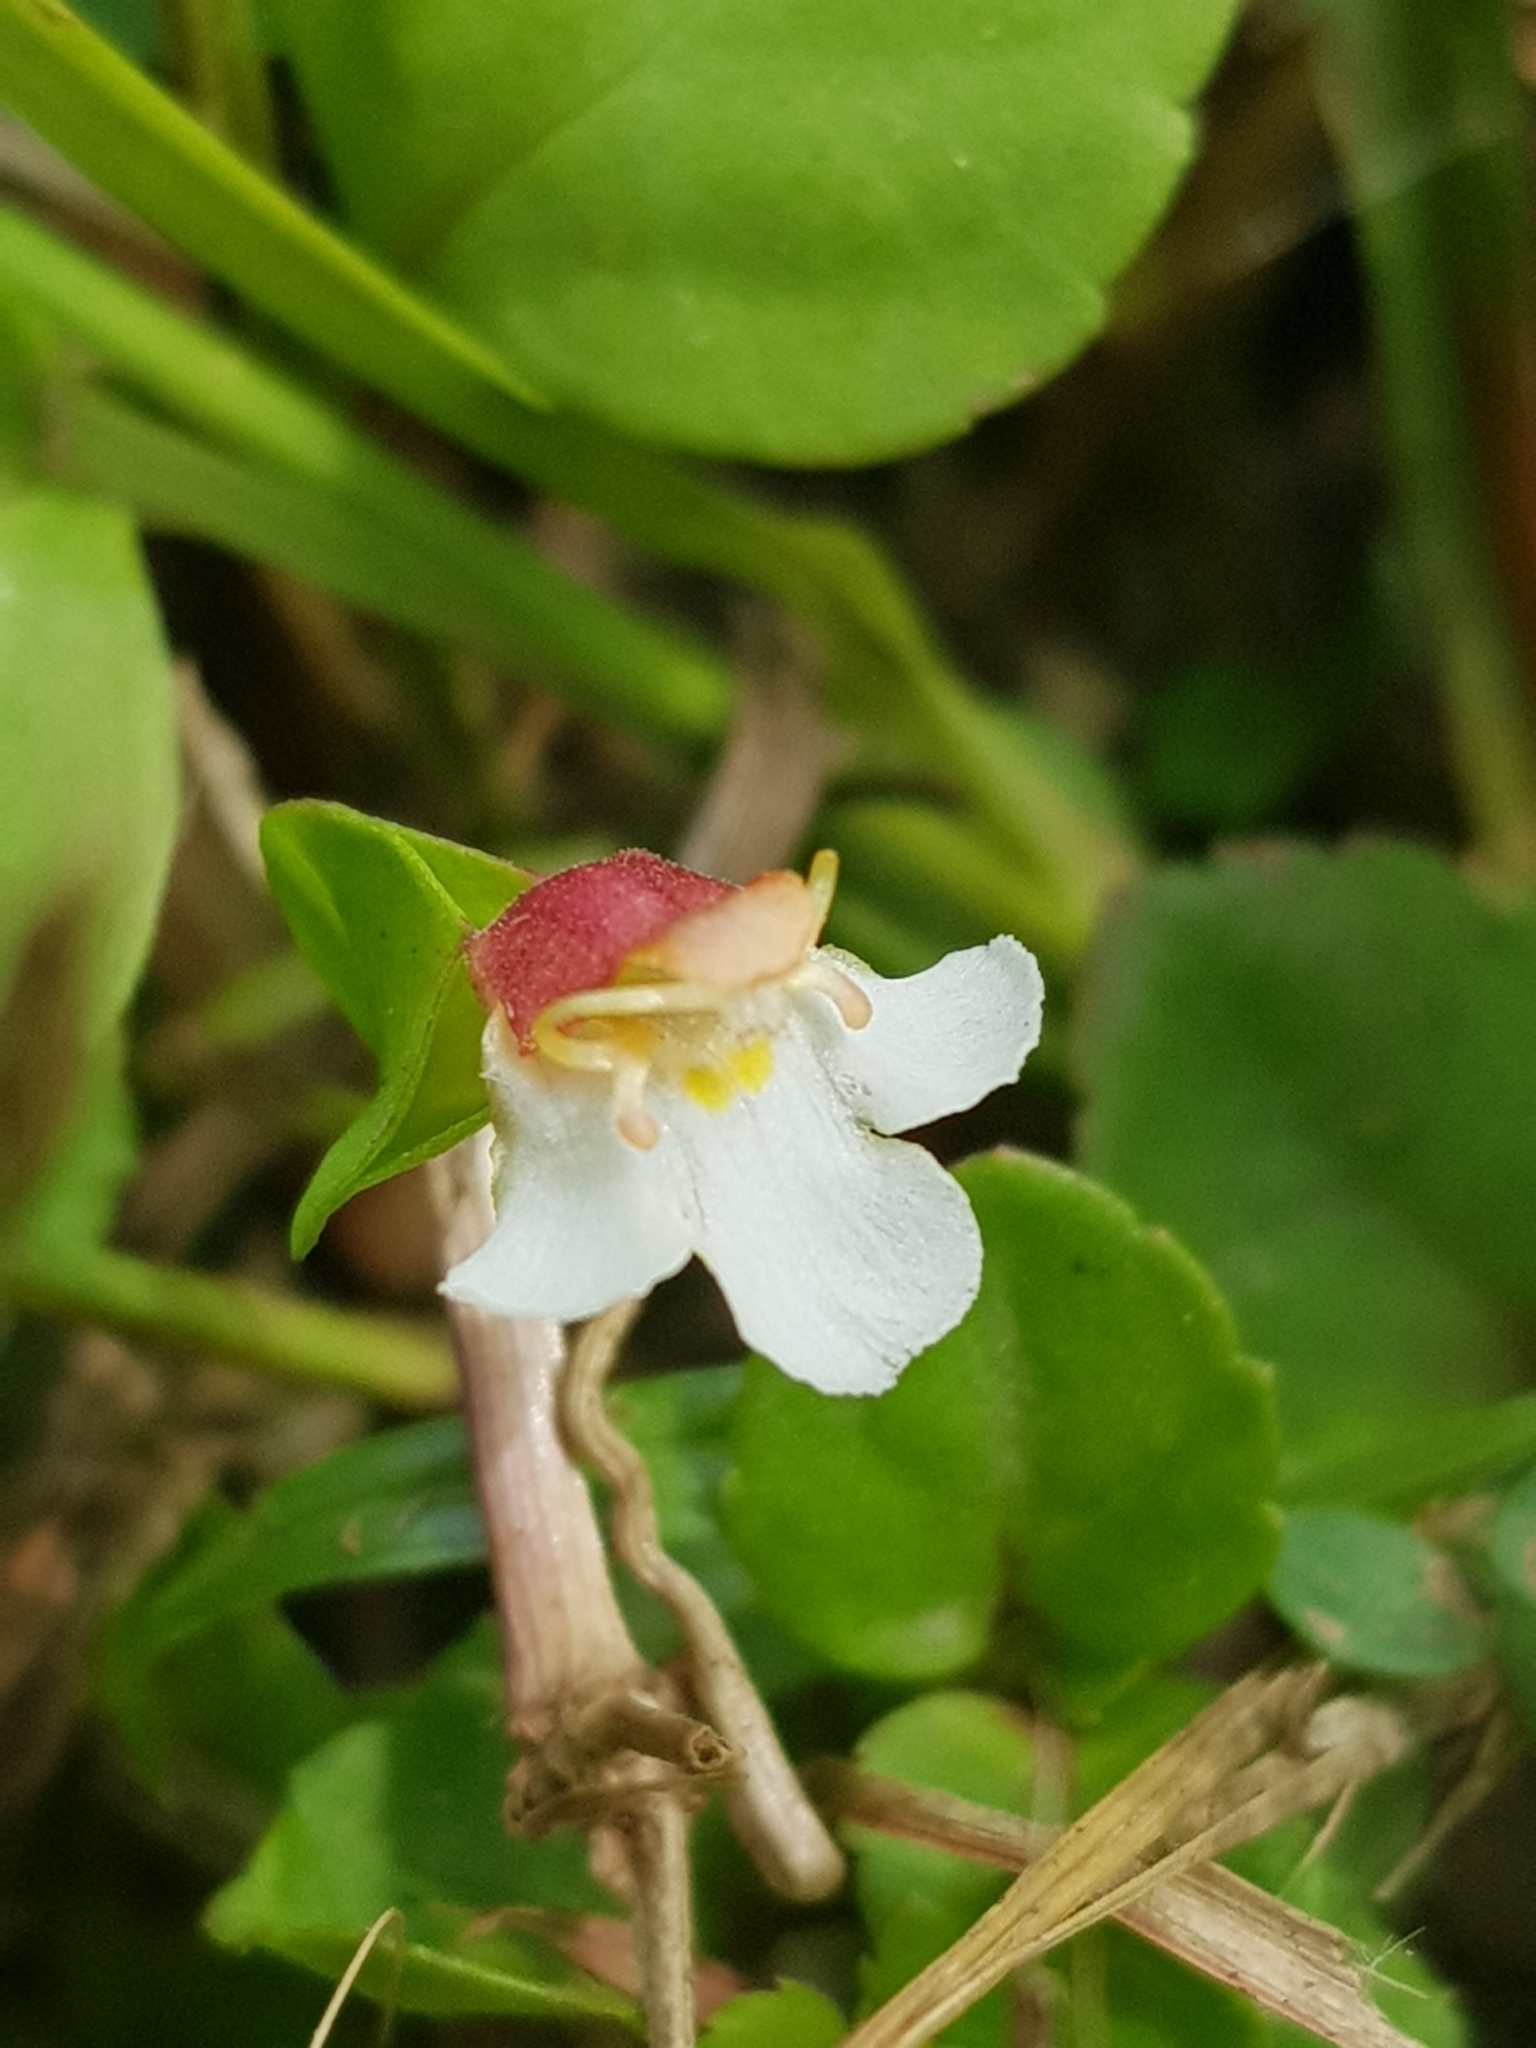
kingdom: Plantae
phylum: Tracheophyta
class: Magnoliopsida
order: Lamiales
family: Linderniaceae
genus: Legazpia
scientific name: Legazpia polygonoides
